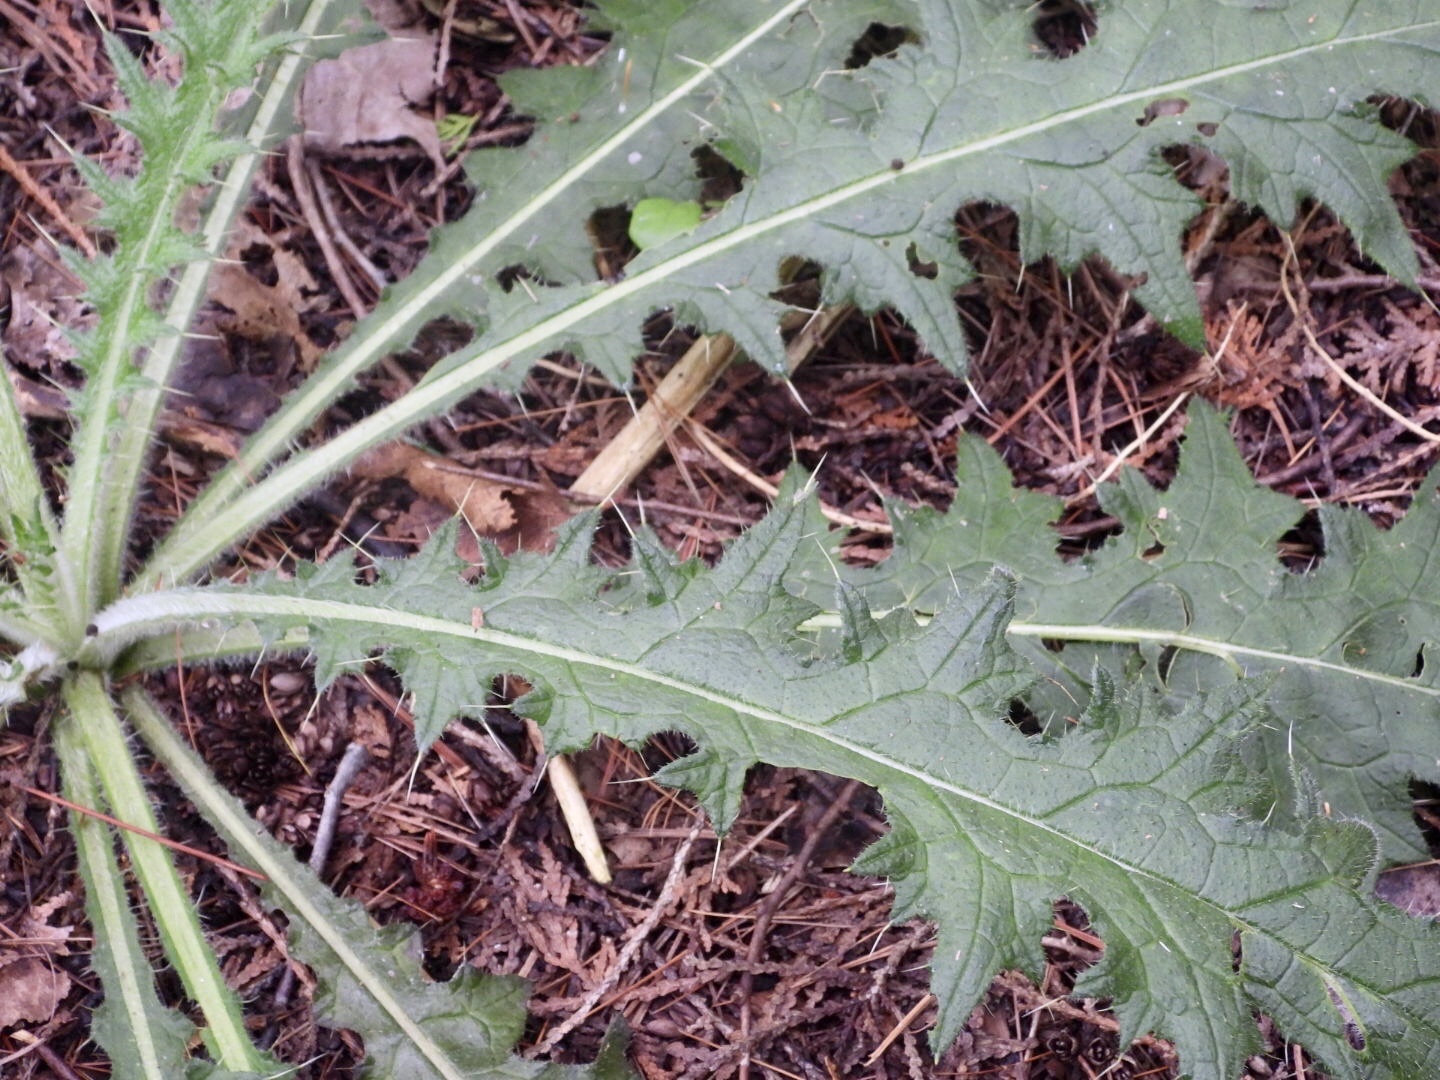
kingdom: Plantae
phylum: Tracheophyta
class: Magnoliopsida
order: Asterales
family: Asteraceae
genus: Cirsium
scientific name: Cirsium vulgare
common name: Bull thistle
